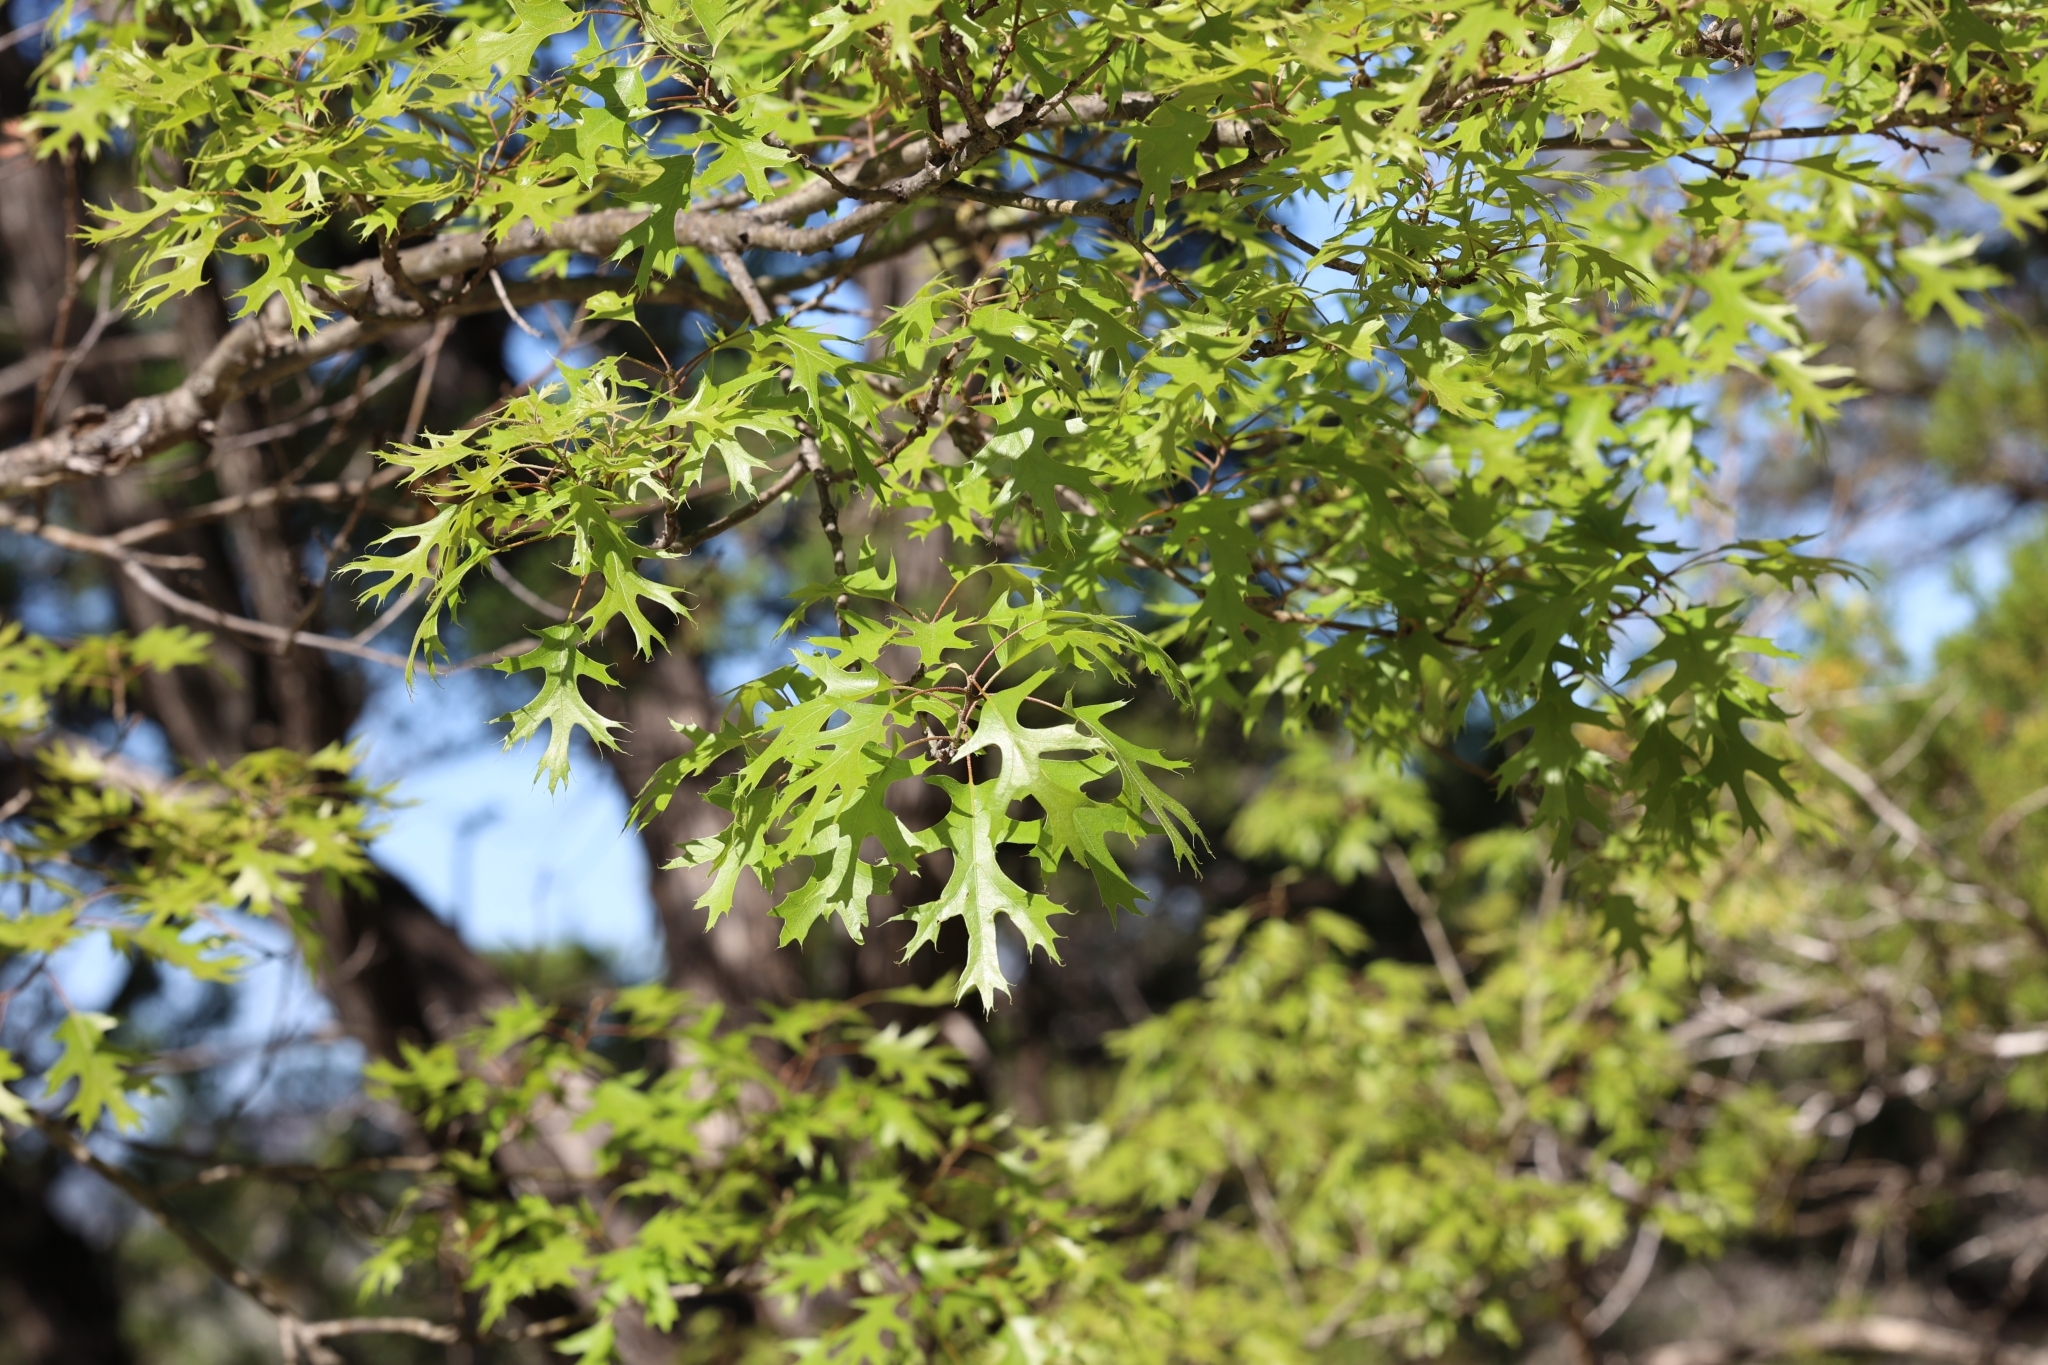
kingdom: Plantae
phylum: Tracheophyta
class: Magnoliopsida
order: Fagales
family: Fagaceae
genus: Quercus
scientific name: Quercus buckleyi
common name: Buckley oak
